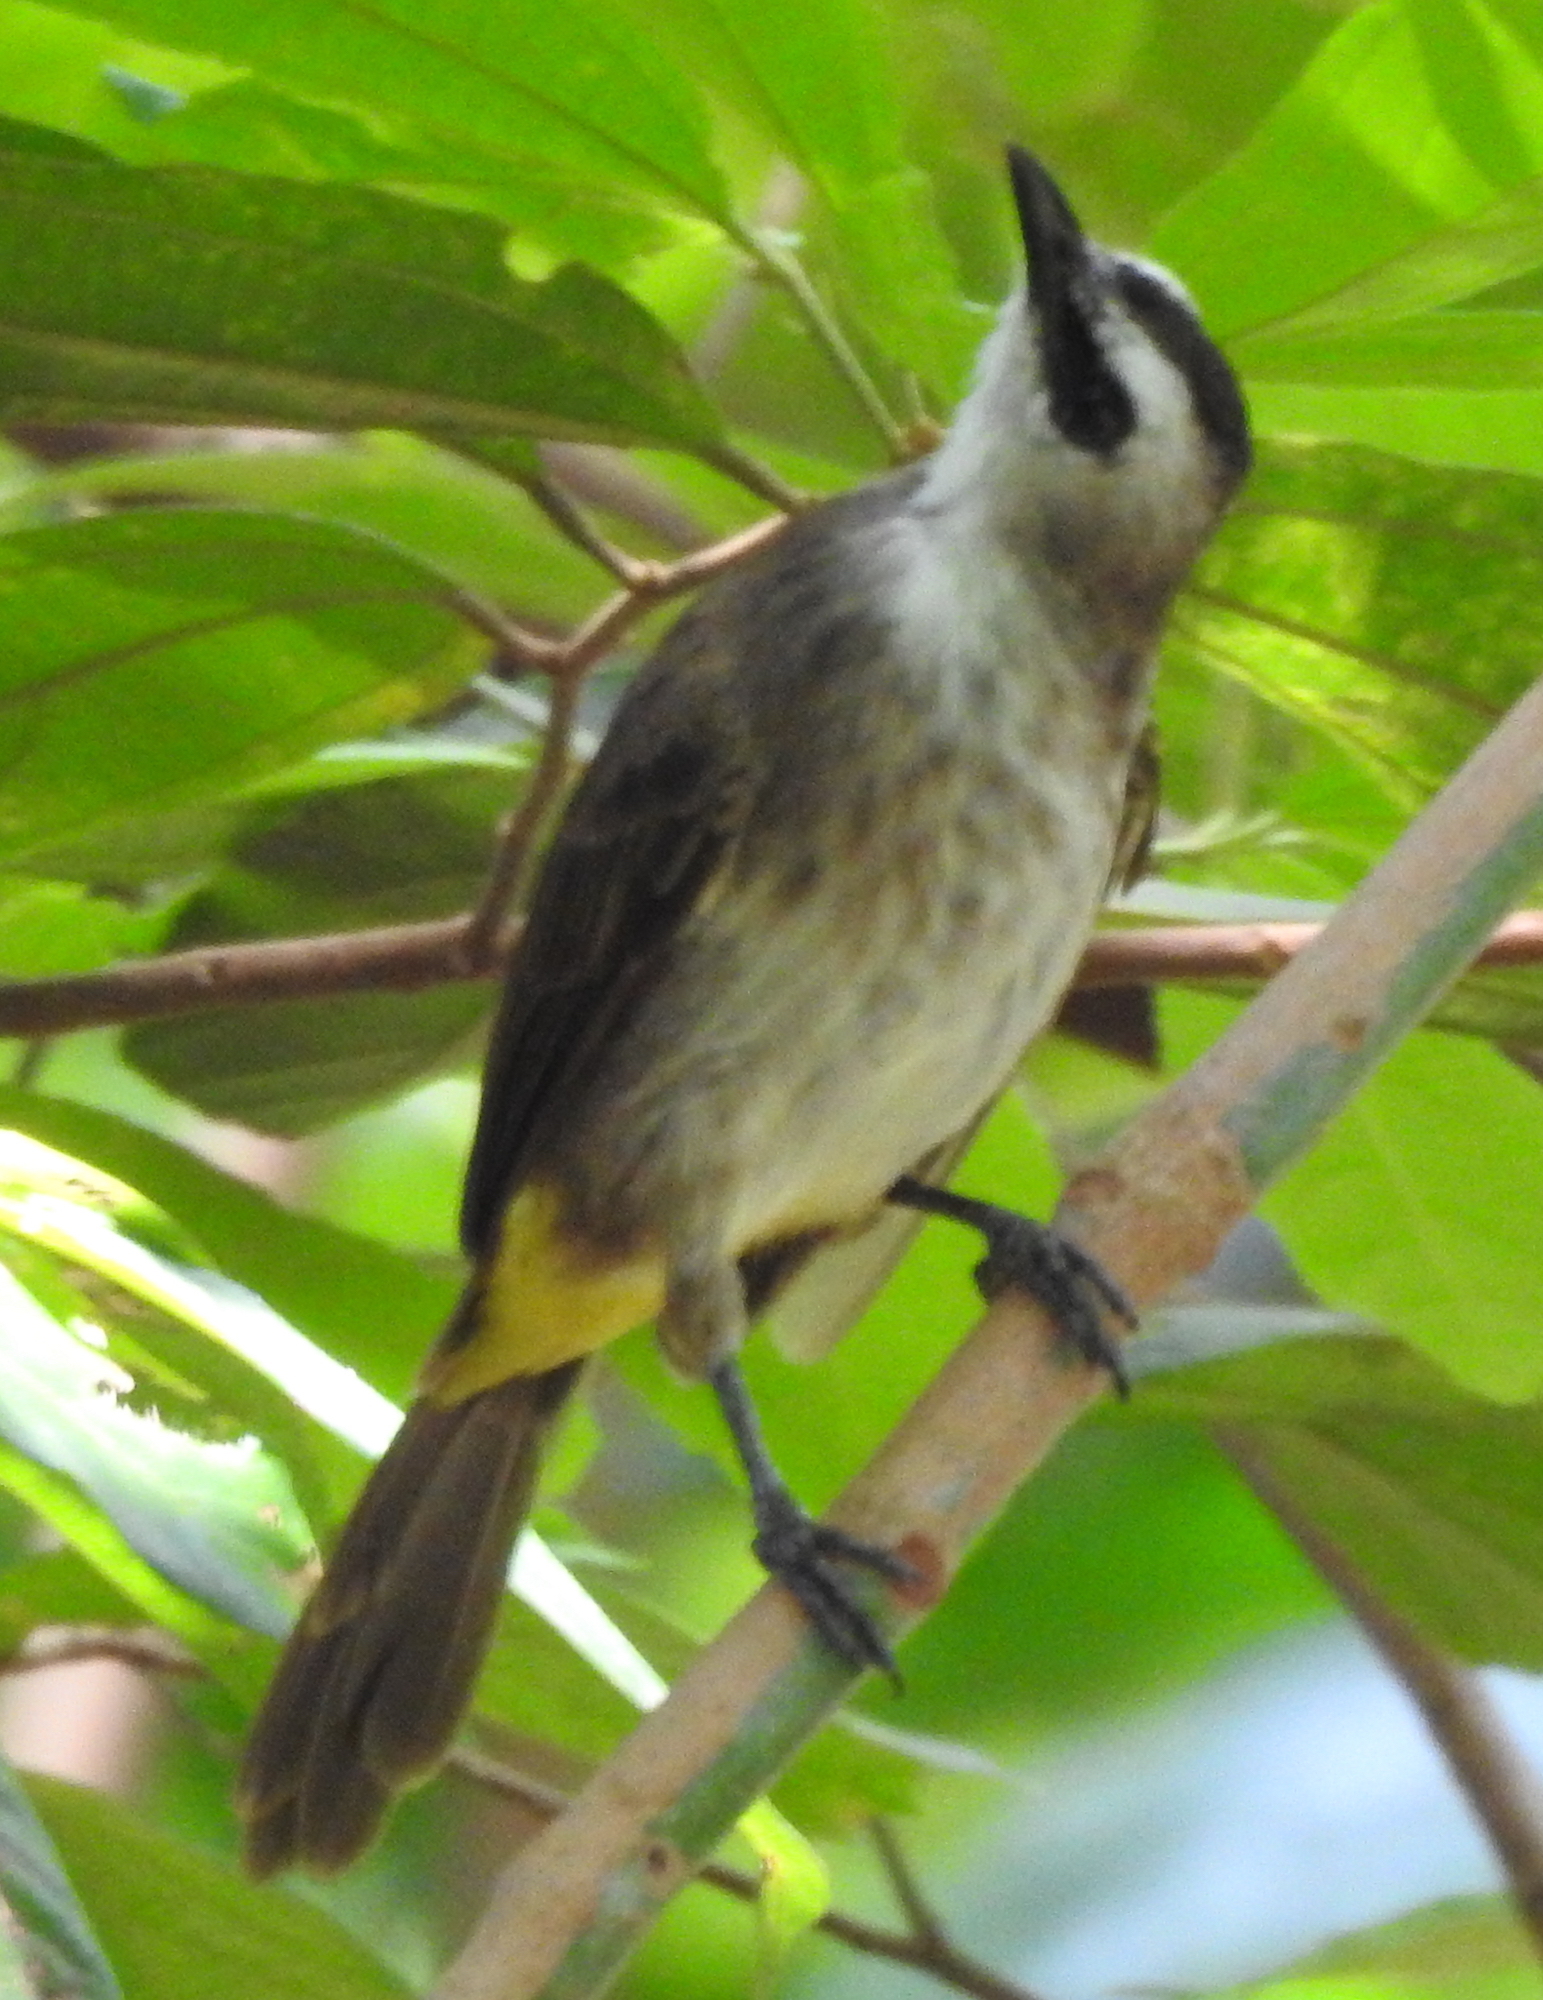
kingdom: Animalia
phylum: Chordata
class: Aves
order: Passeriformes
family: Pycnonotidae
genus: Pycnonotus
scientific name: Pycnonotus goiavier
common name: Yellow-vented bulbul
